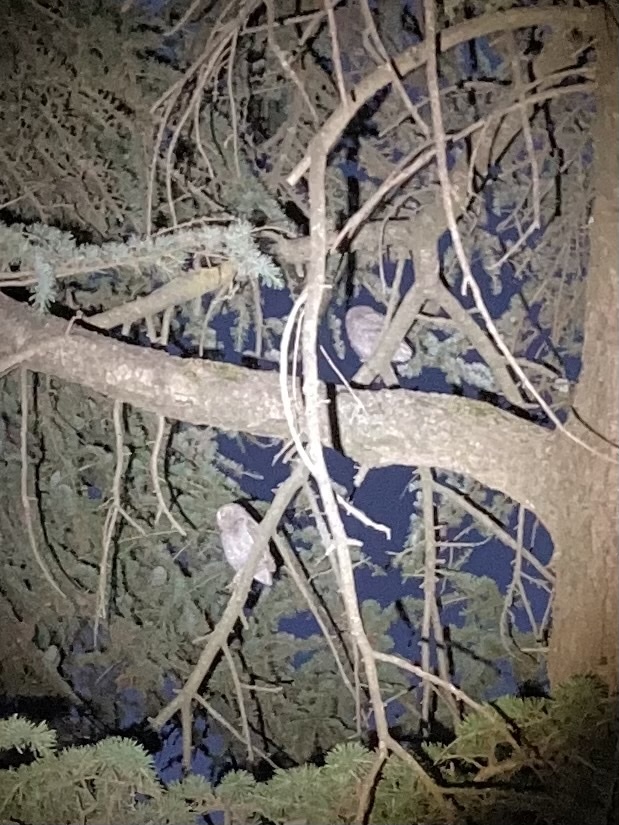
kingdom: Animalia
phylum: Chordata
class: Aves
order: Strigiformes
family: Strigidae
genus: Otus
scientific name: Otus scops
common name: Eurasian scops owl
